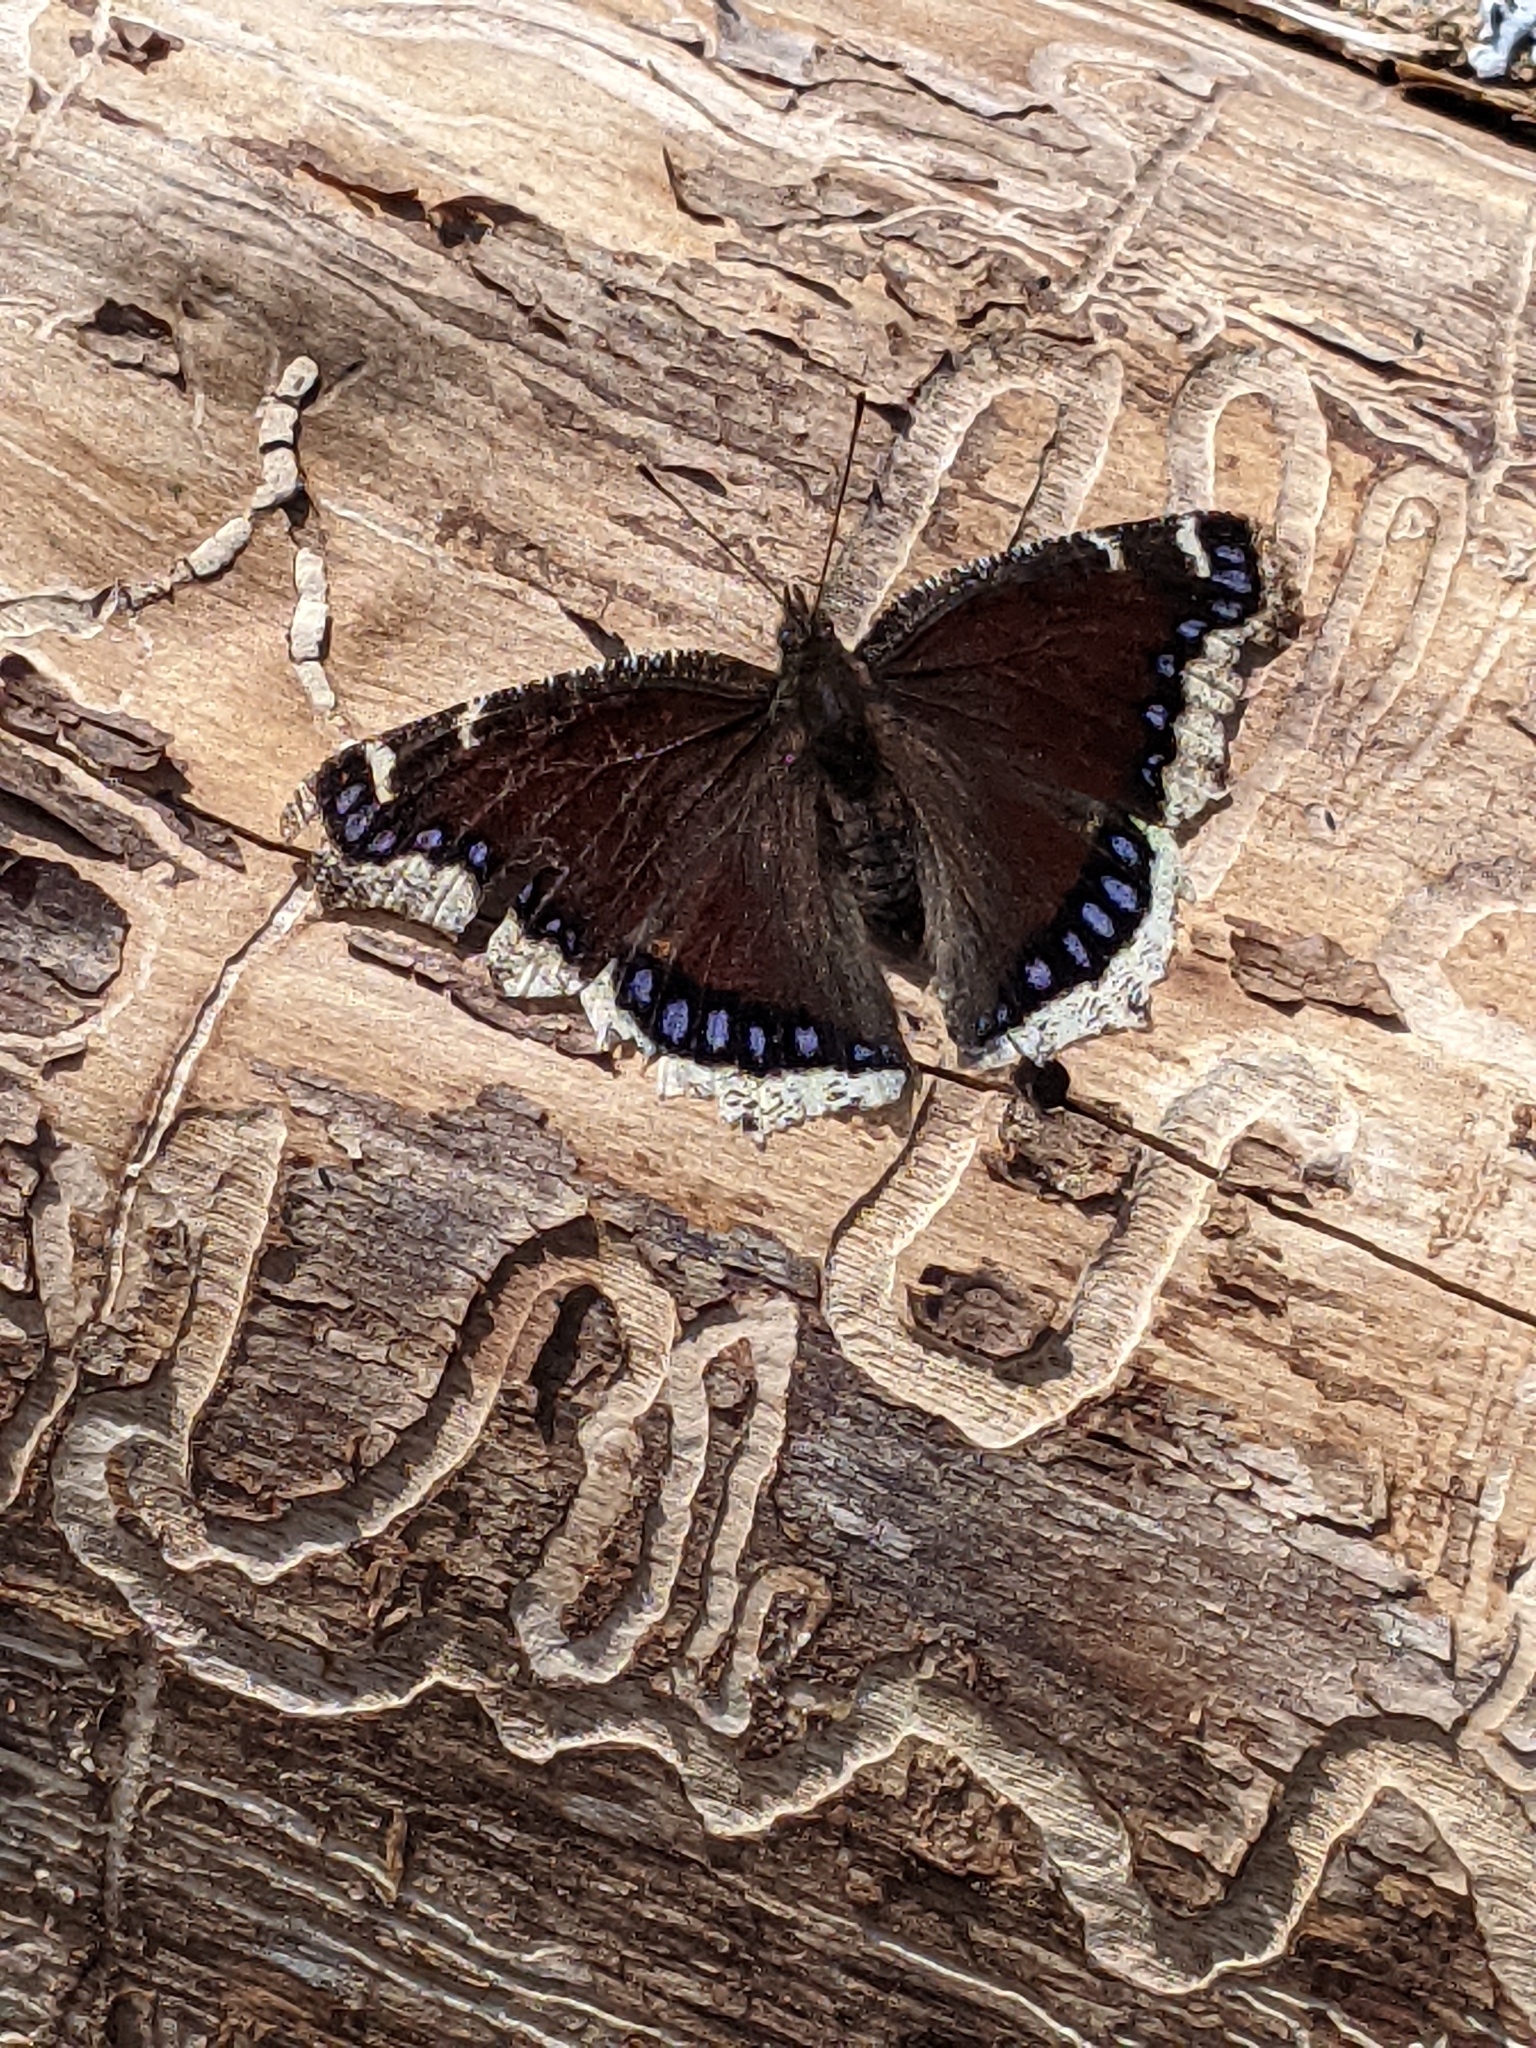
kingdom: Animalia
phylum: Arthropoda
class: Insecta
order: Lepidoptera
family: Nymphalidae
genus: Nymphalis
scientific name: Nymphalis antiopa
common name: Camberwell beauty
